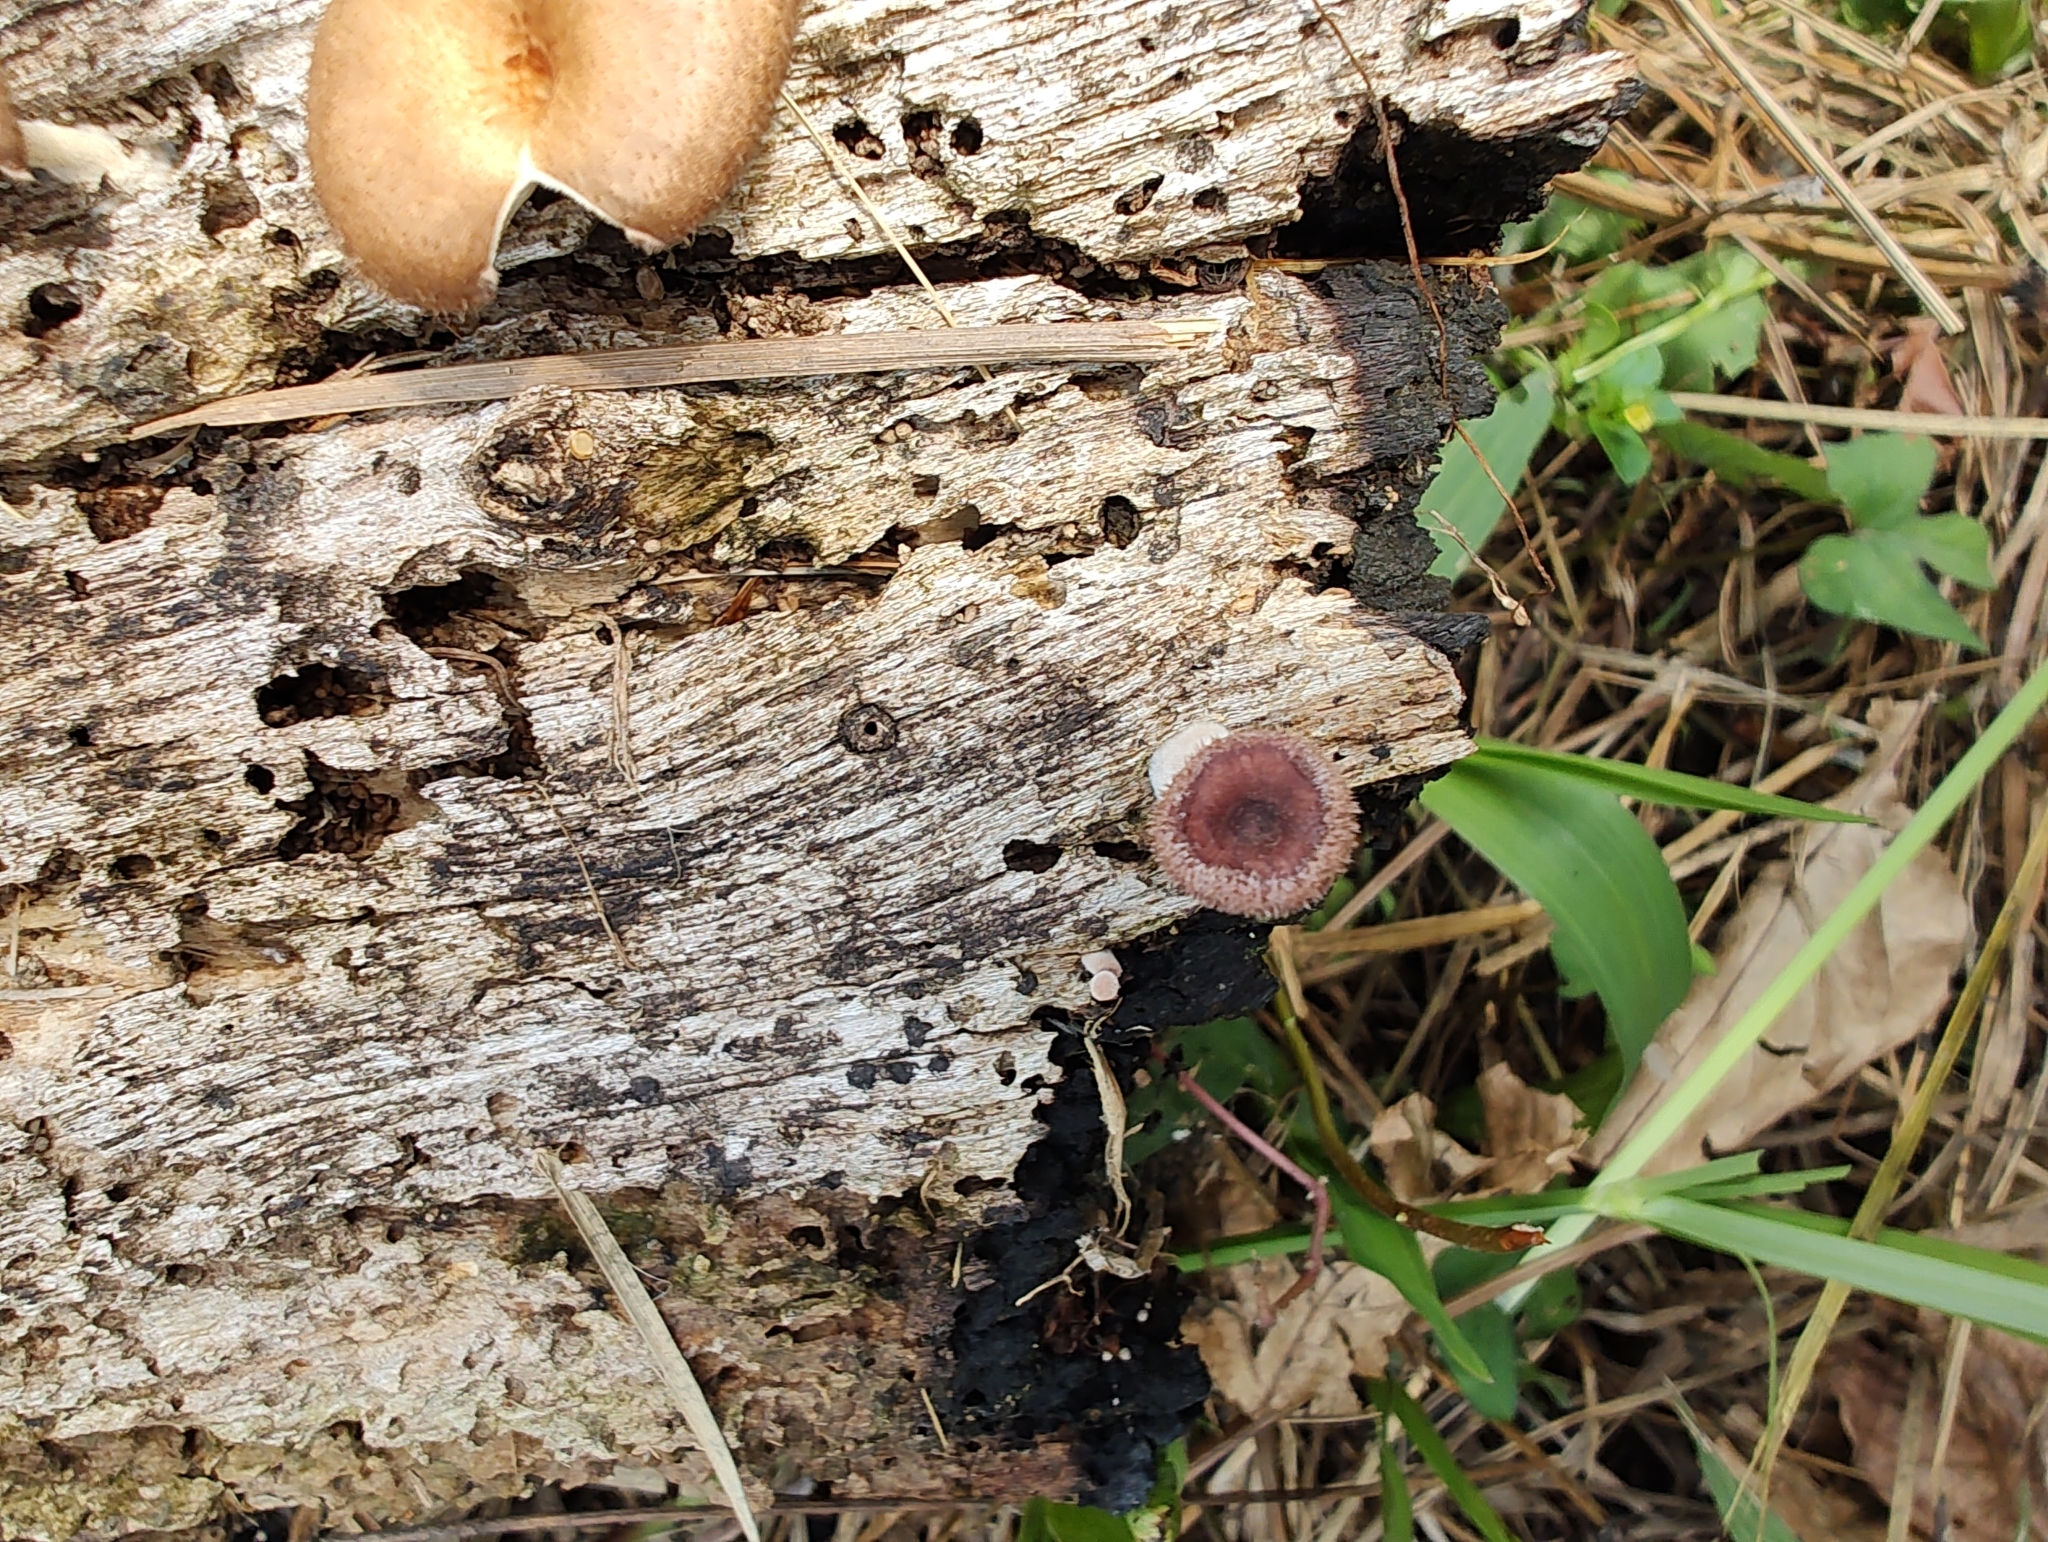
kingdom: Fungi
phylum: Basidiomycota
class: Agaricomycetes
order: Polyporales
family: Panaceae
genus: Panus
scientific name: Panus neostrigosus
